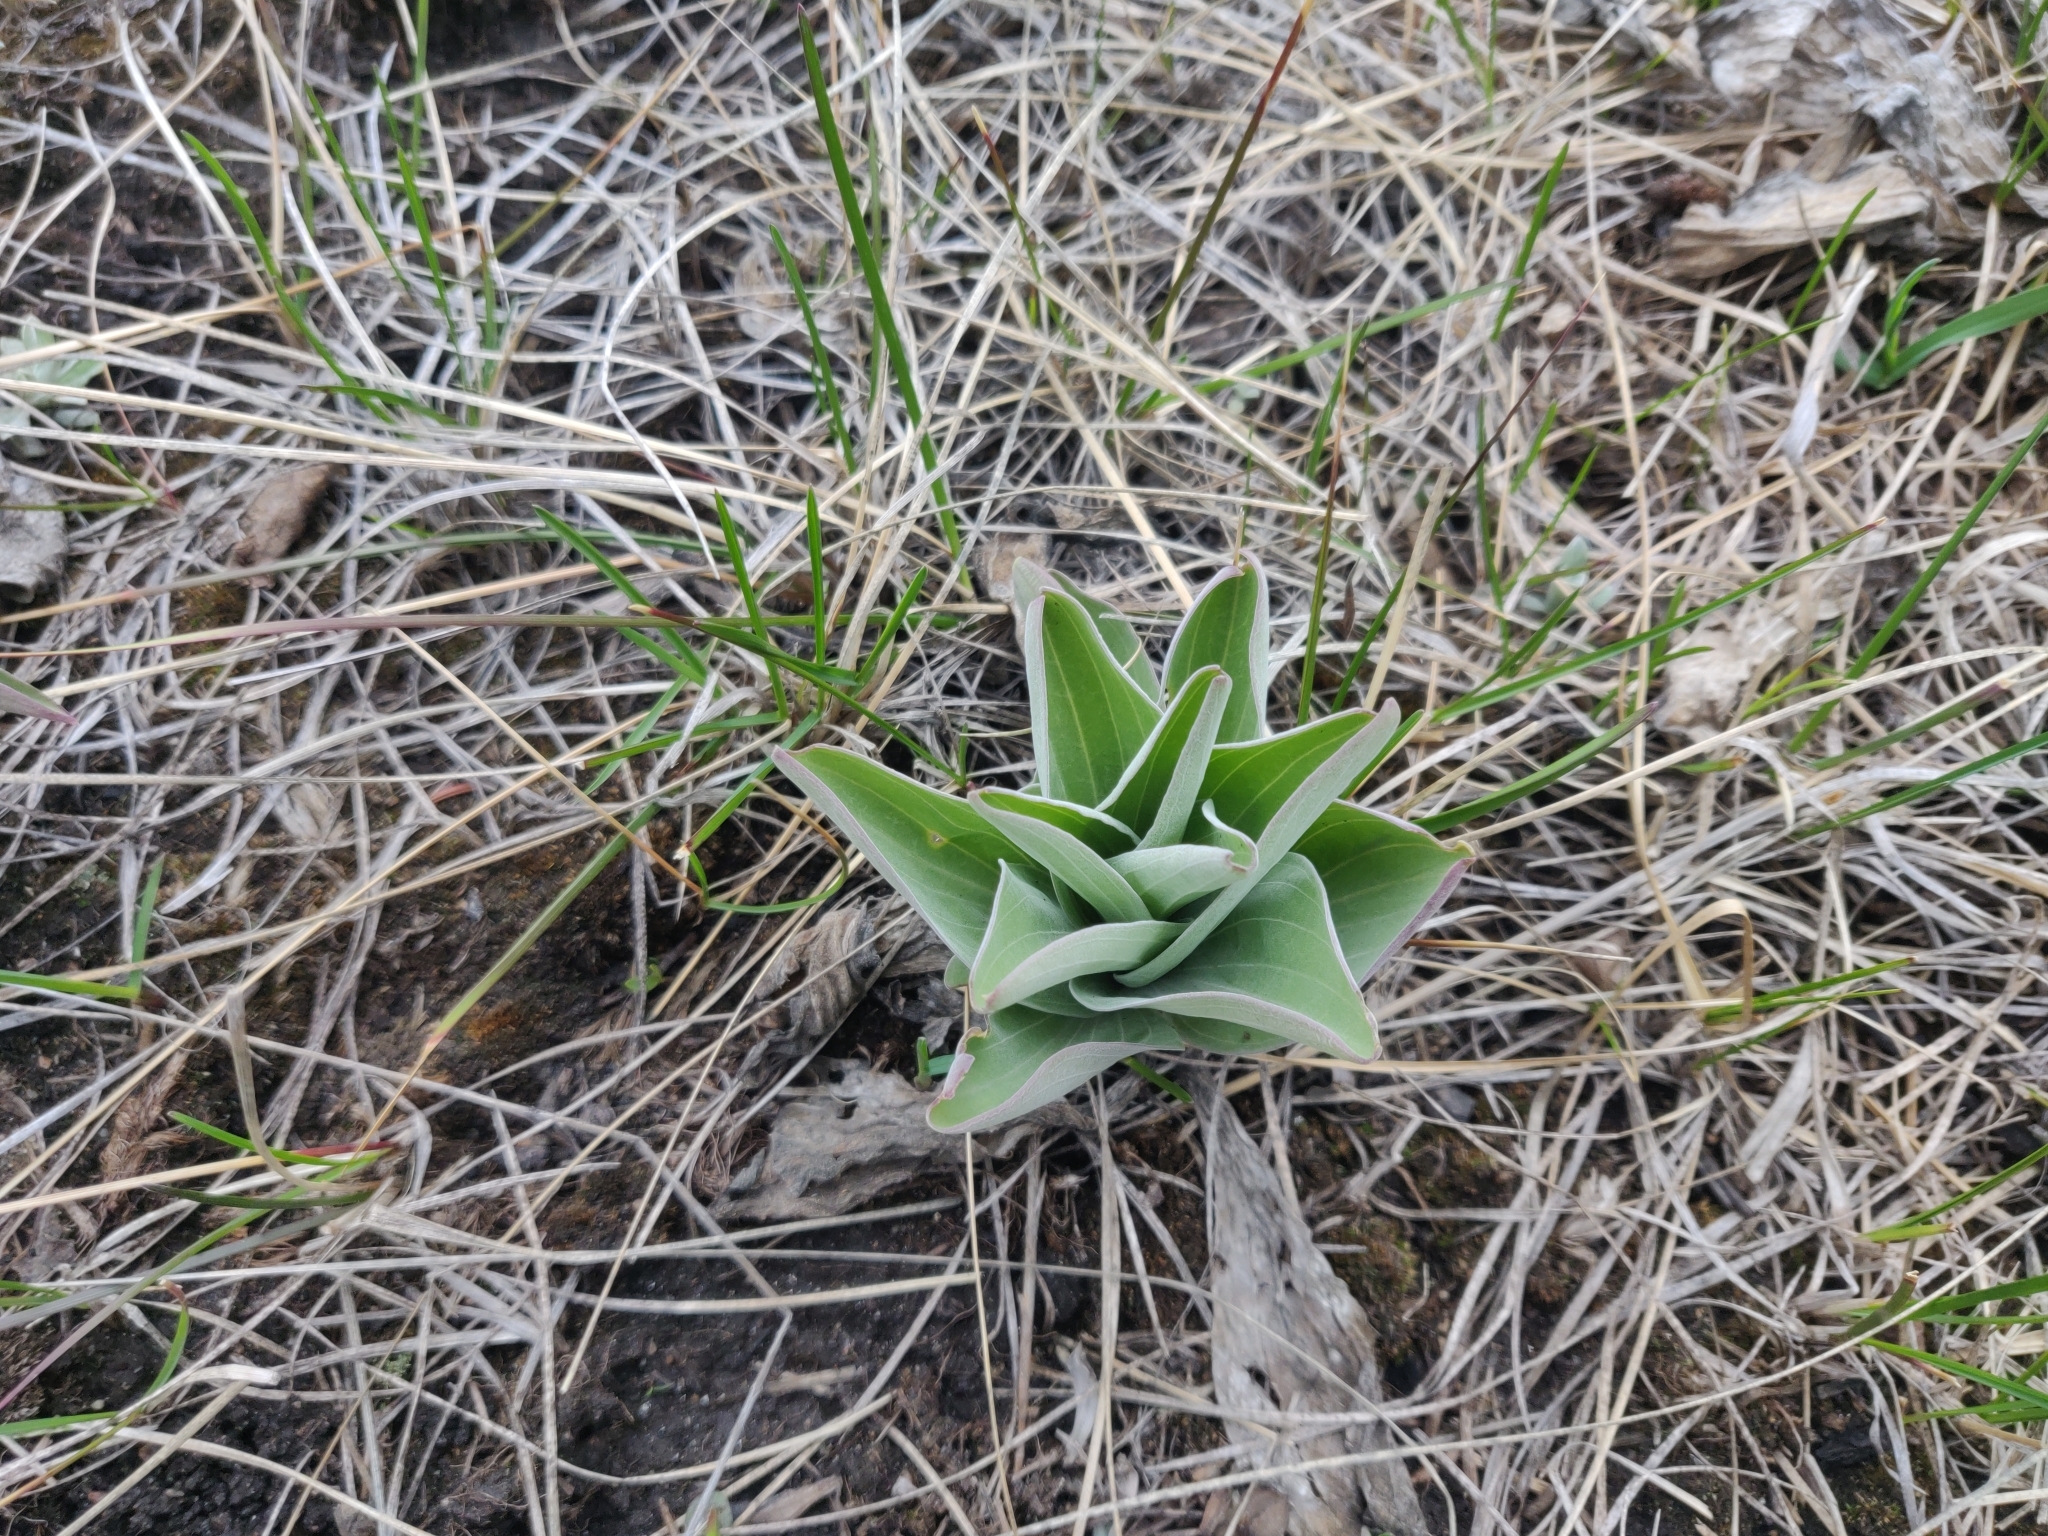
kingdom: Plantae
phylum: Tracheophyta
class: Magnoliopsida
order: Gentianales
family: Gentianaceae
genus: Frasera
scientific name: Frasera speciosa
